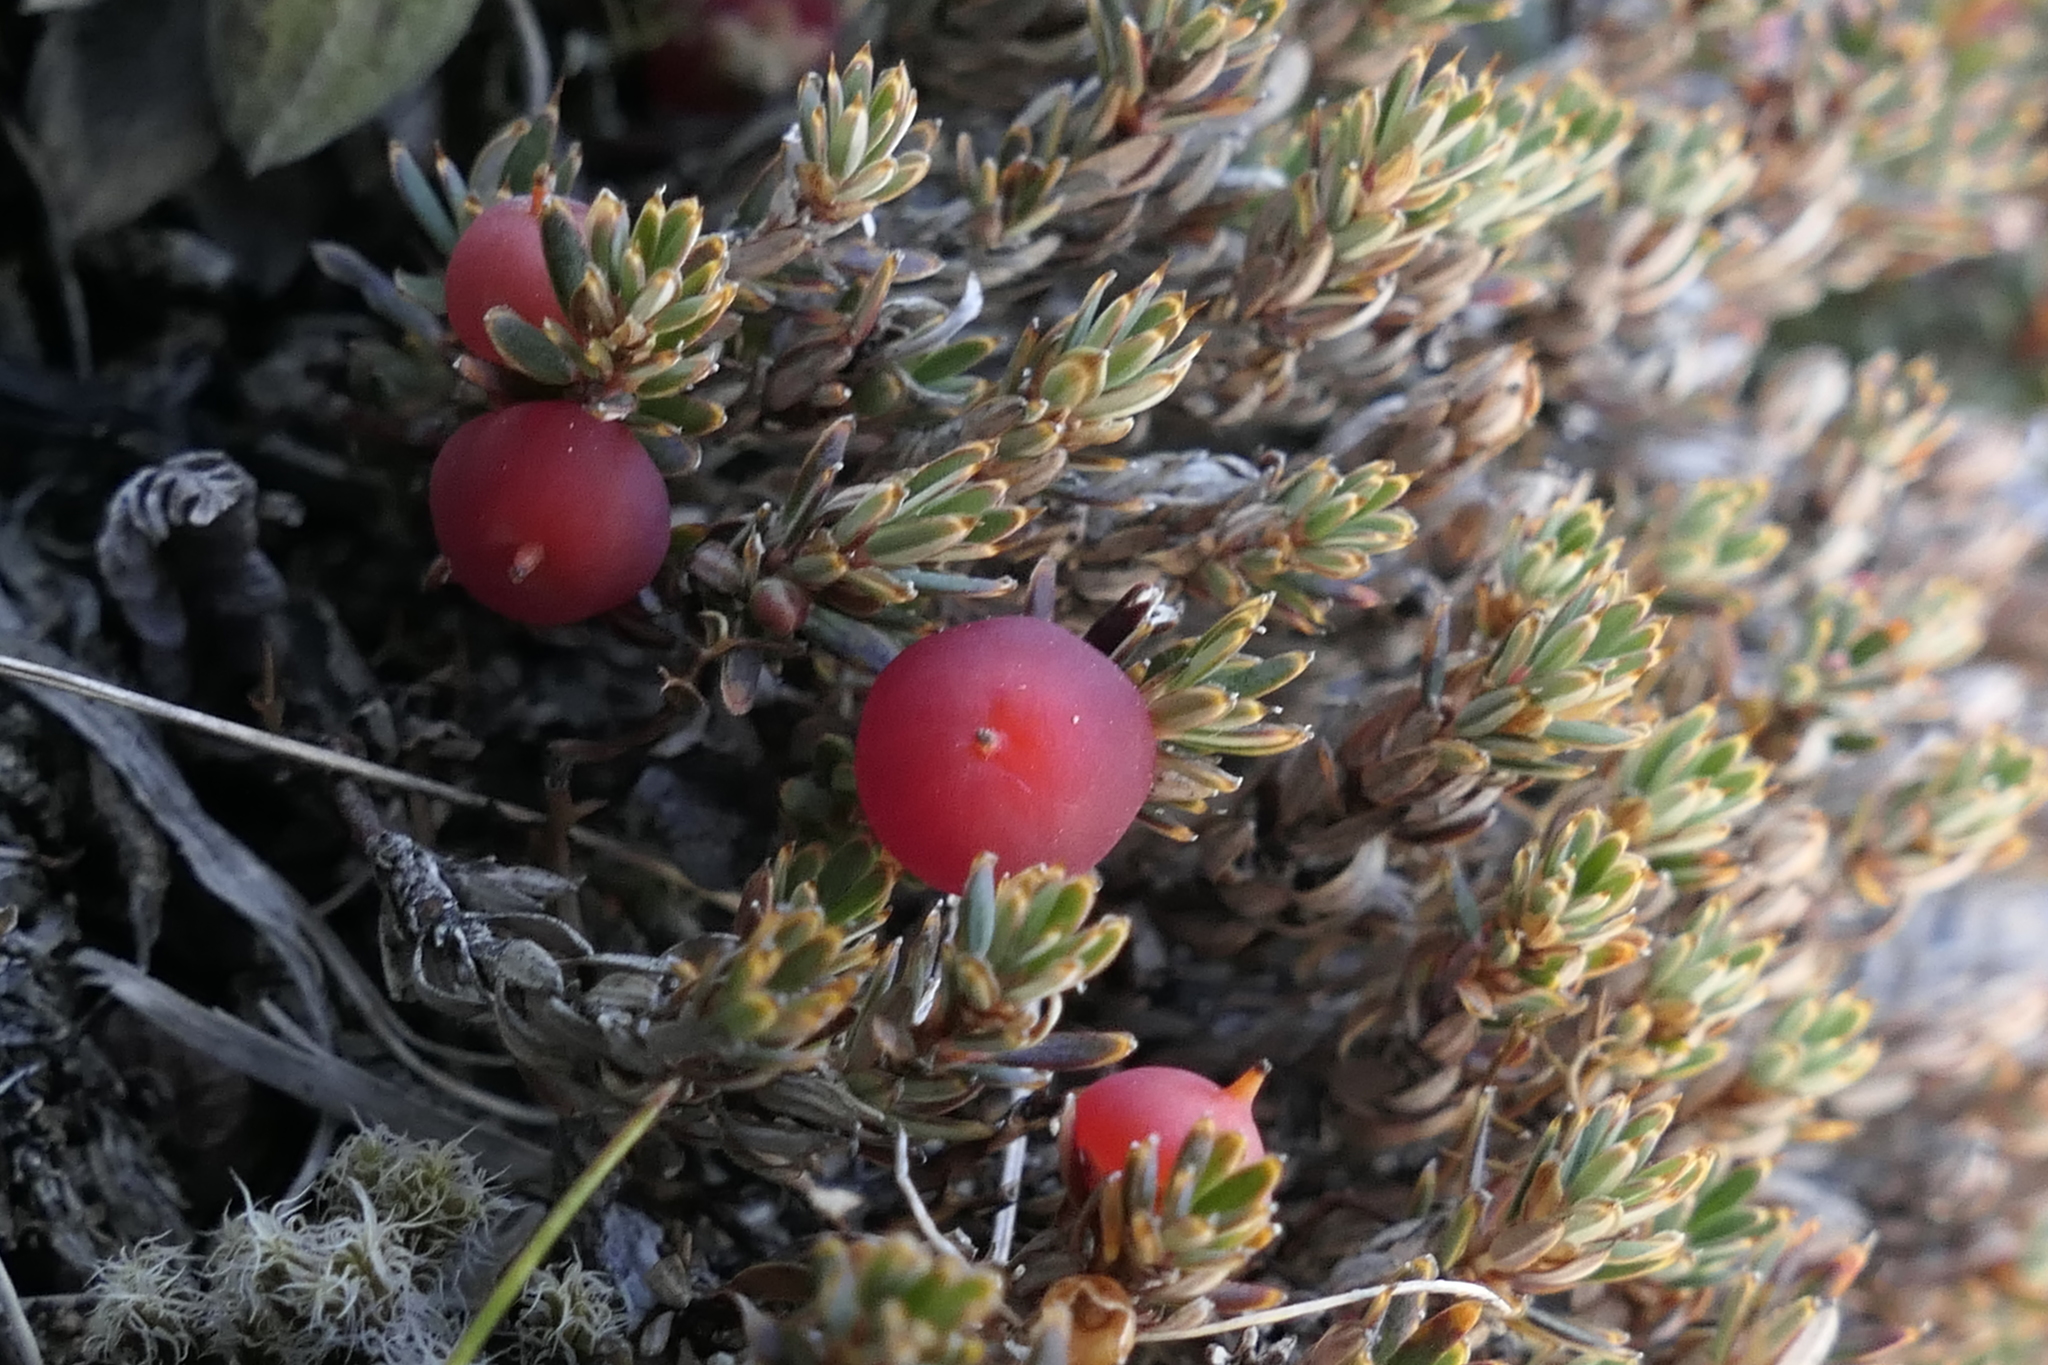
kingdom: Plantae
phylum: Tracheophyta
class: Magnoliopsida
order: Ericales
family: Ericaceae
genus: Montitega
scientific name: Montitega dealbata
